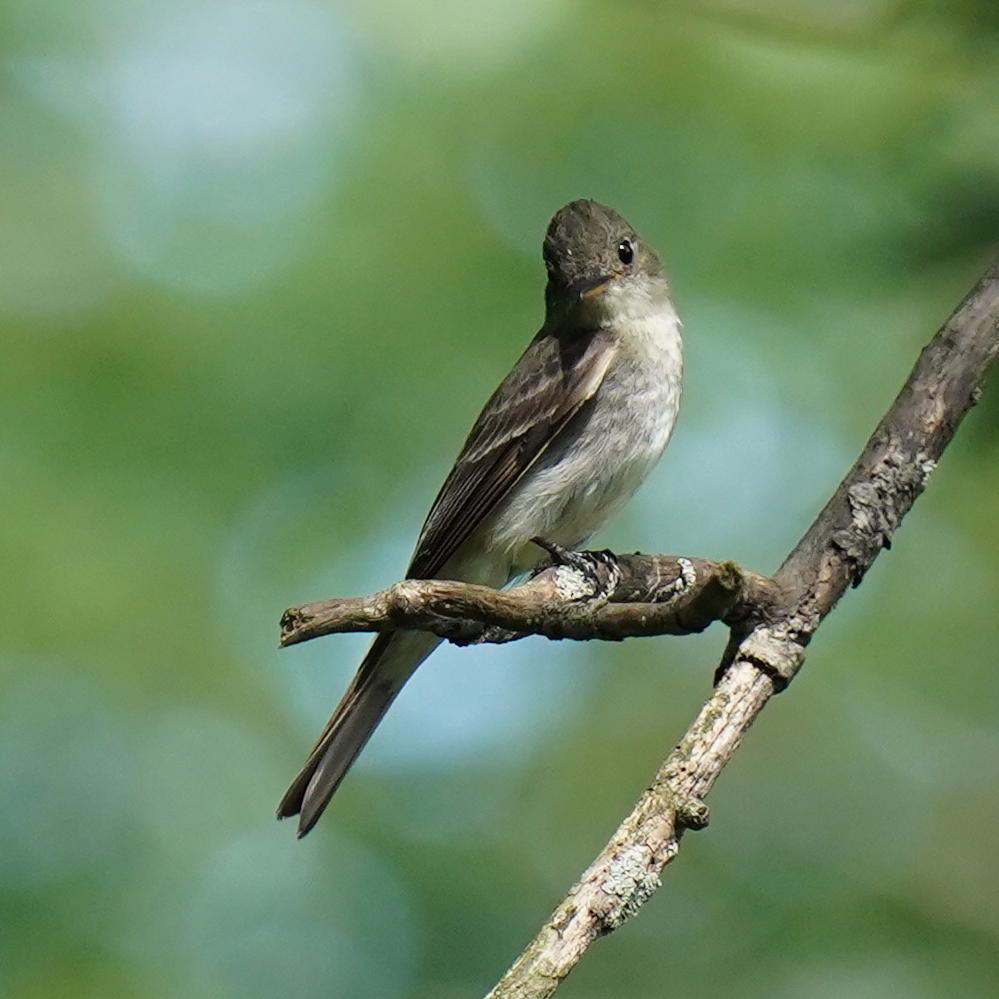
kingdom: Animalia
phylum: Chordata
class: Aves
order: Passeriformes
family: Tyrannidae
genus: Contopus
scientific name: Contopus virens
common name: Eastern wood-pewee
